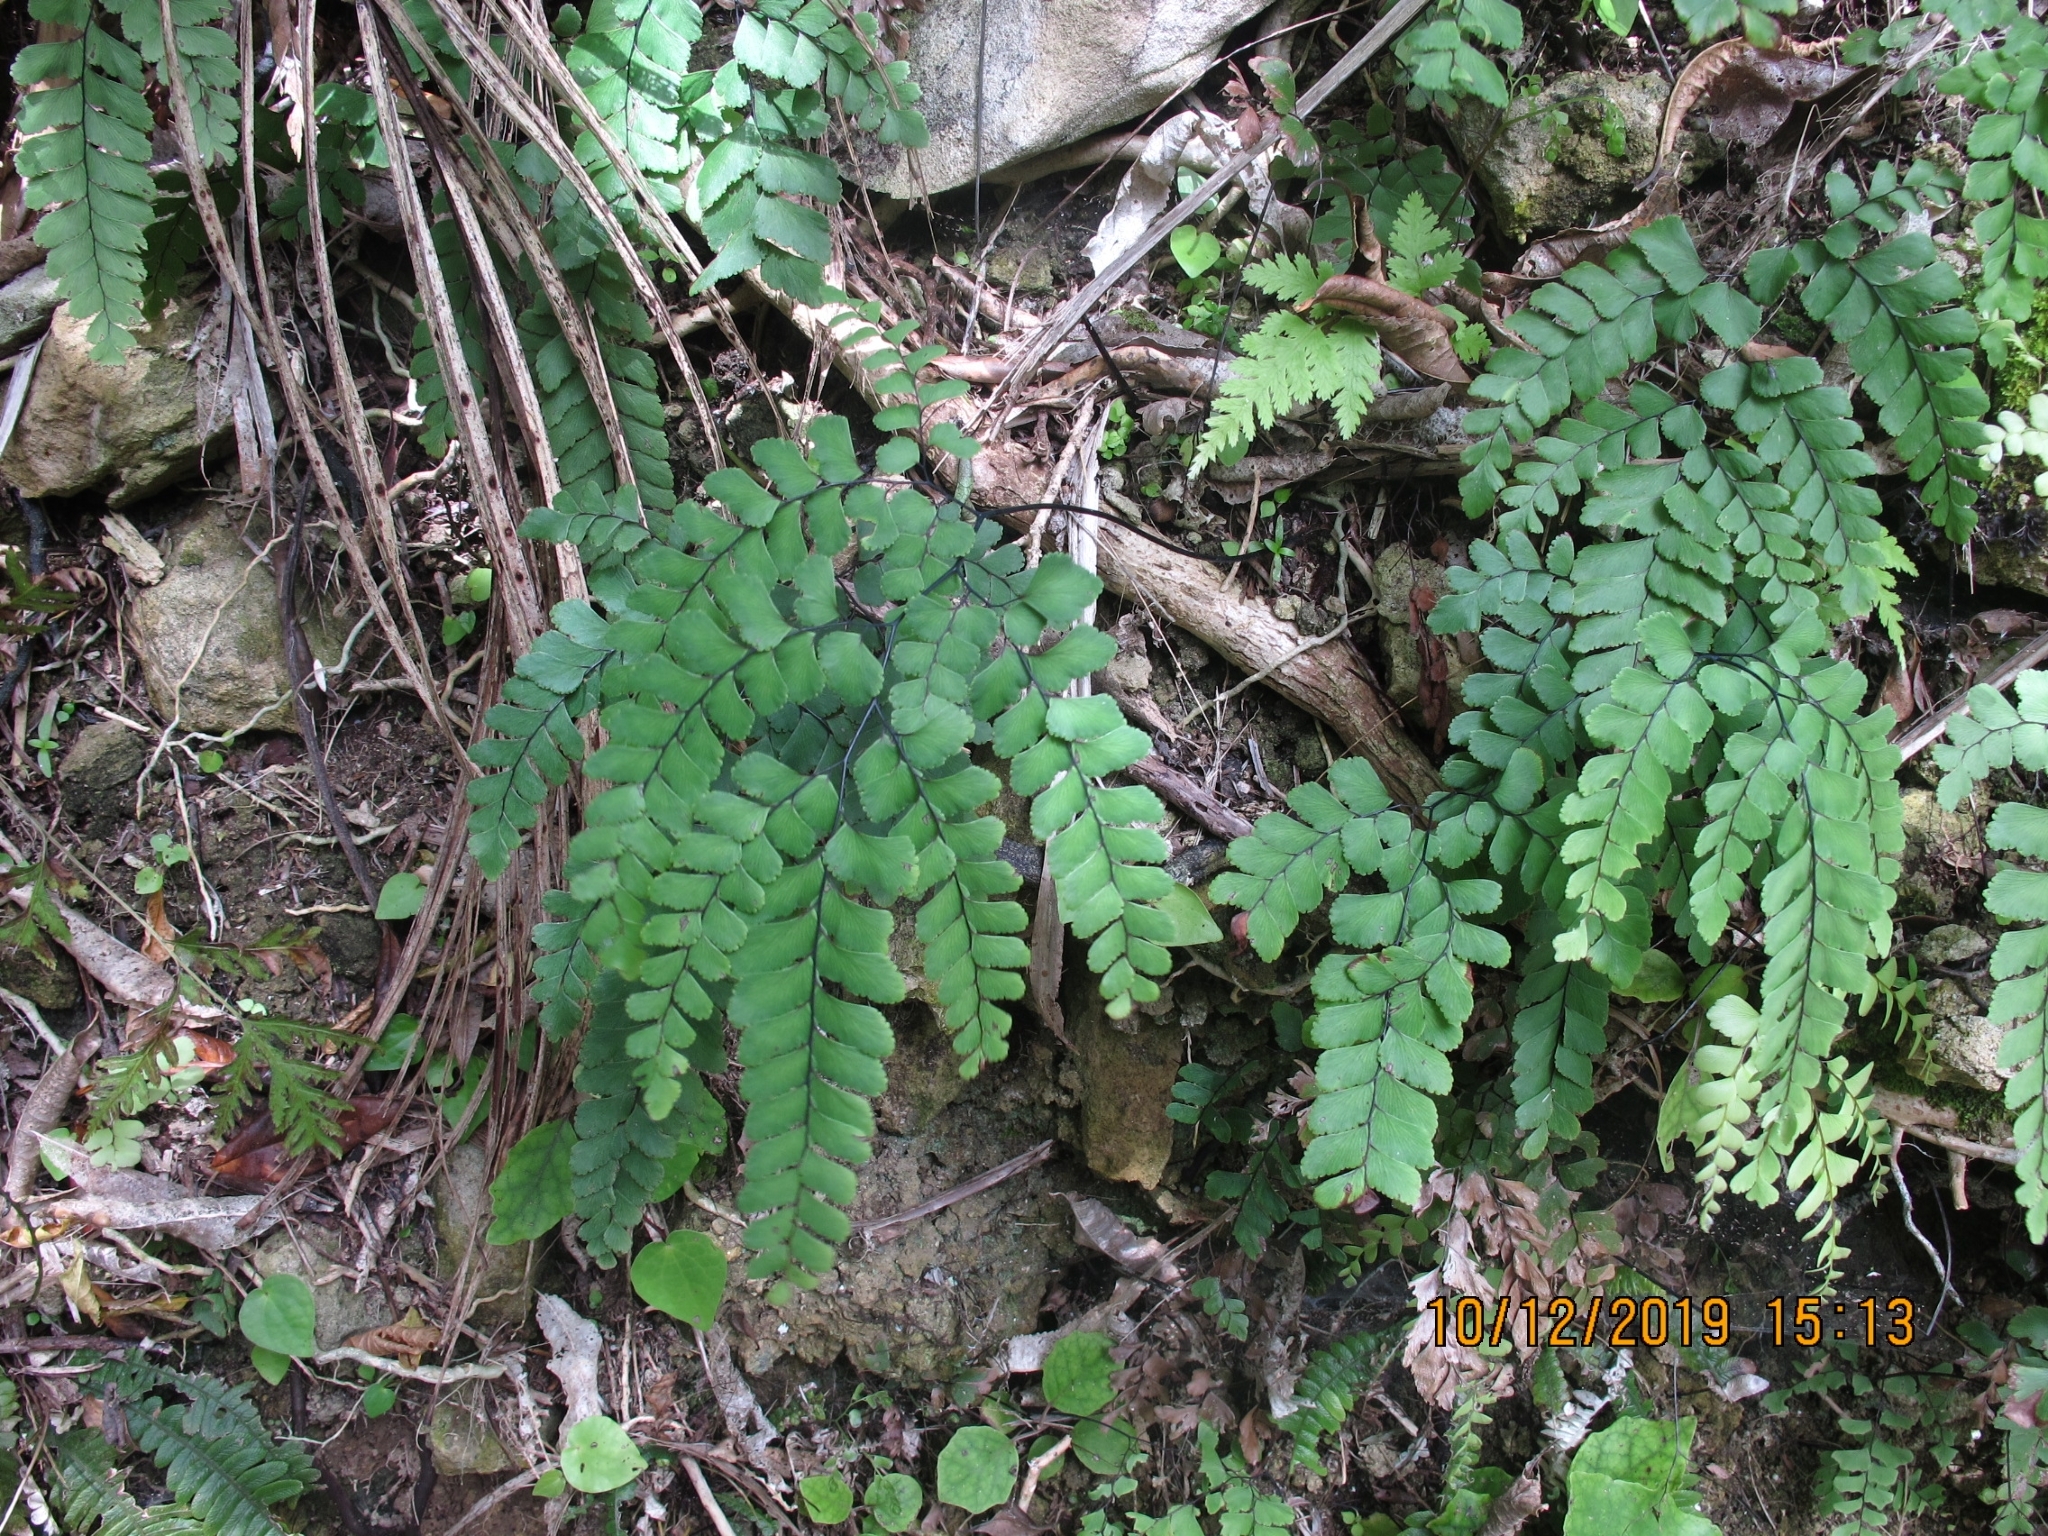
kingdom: Plantae
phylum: Tracheophyta
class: Polypodiopsida
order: Polypodiales
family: Pteridaceae
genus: Adiantum
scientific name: Adiantum cunninghamii
